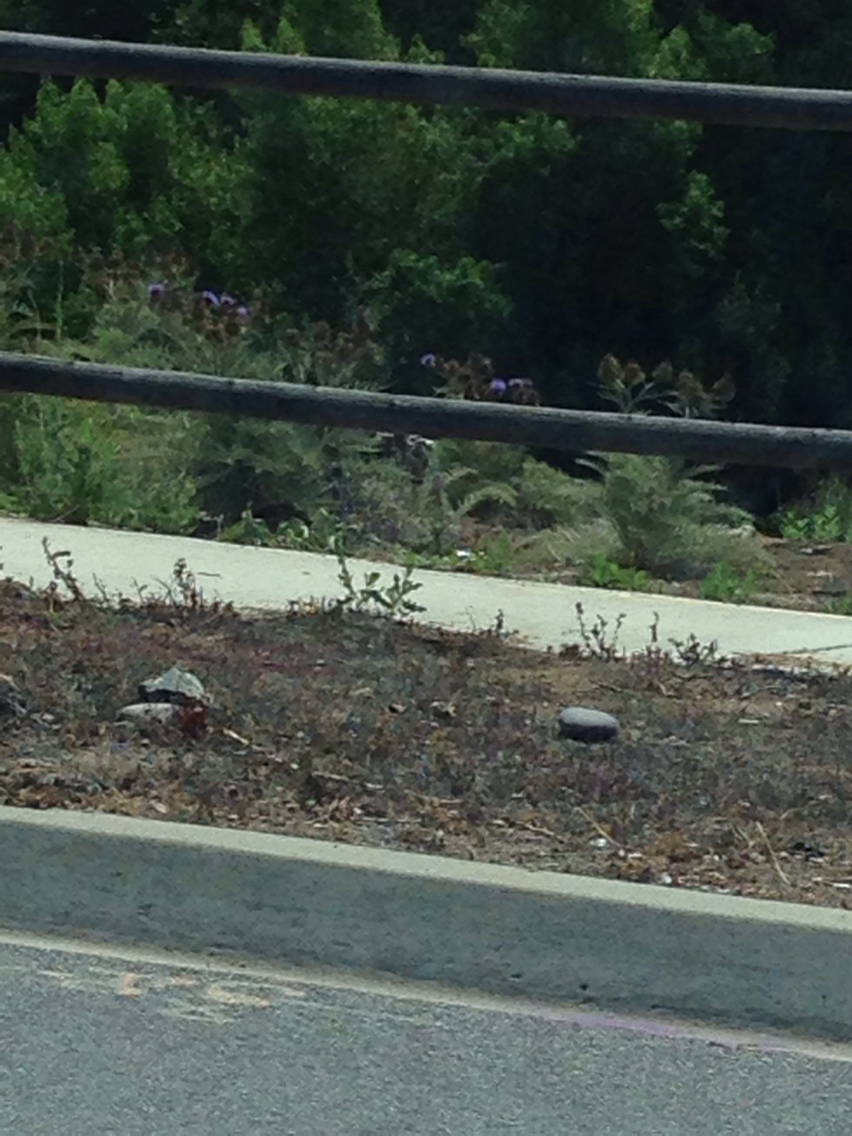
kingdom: Plantae
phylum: Tracheophyta
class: Magnoliopsida
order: Asterales
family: Asteraceae
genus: Cynara
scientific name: Cynara cardunculus
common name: Globe artichoke
